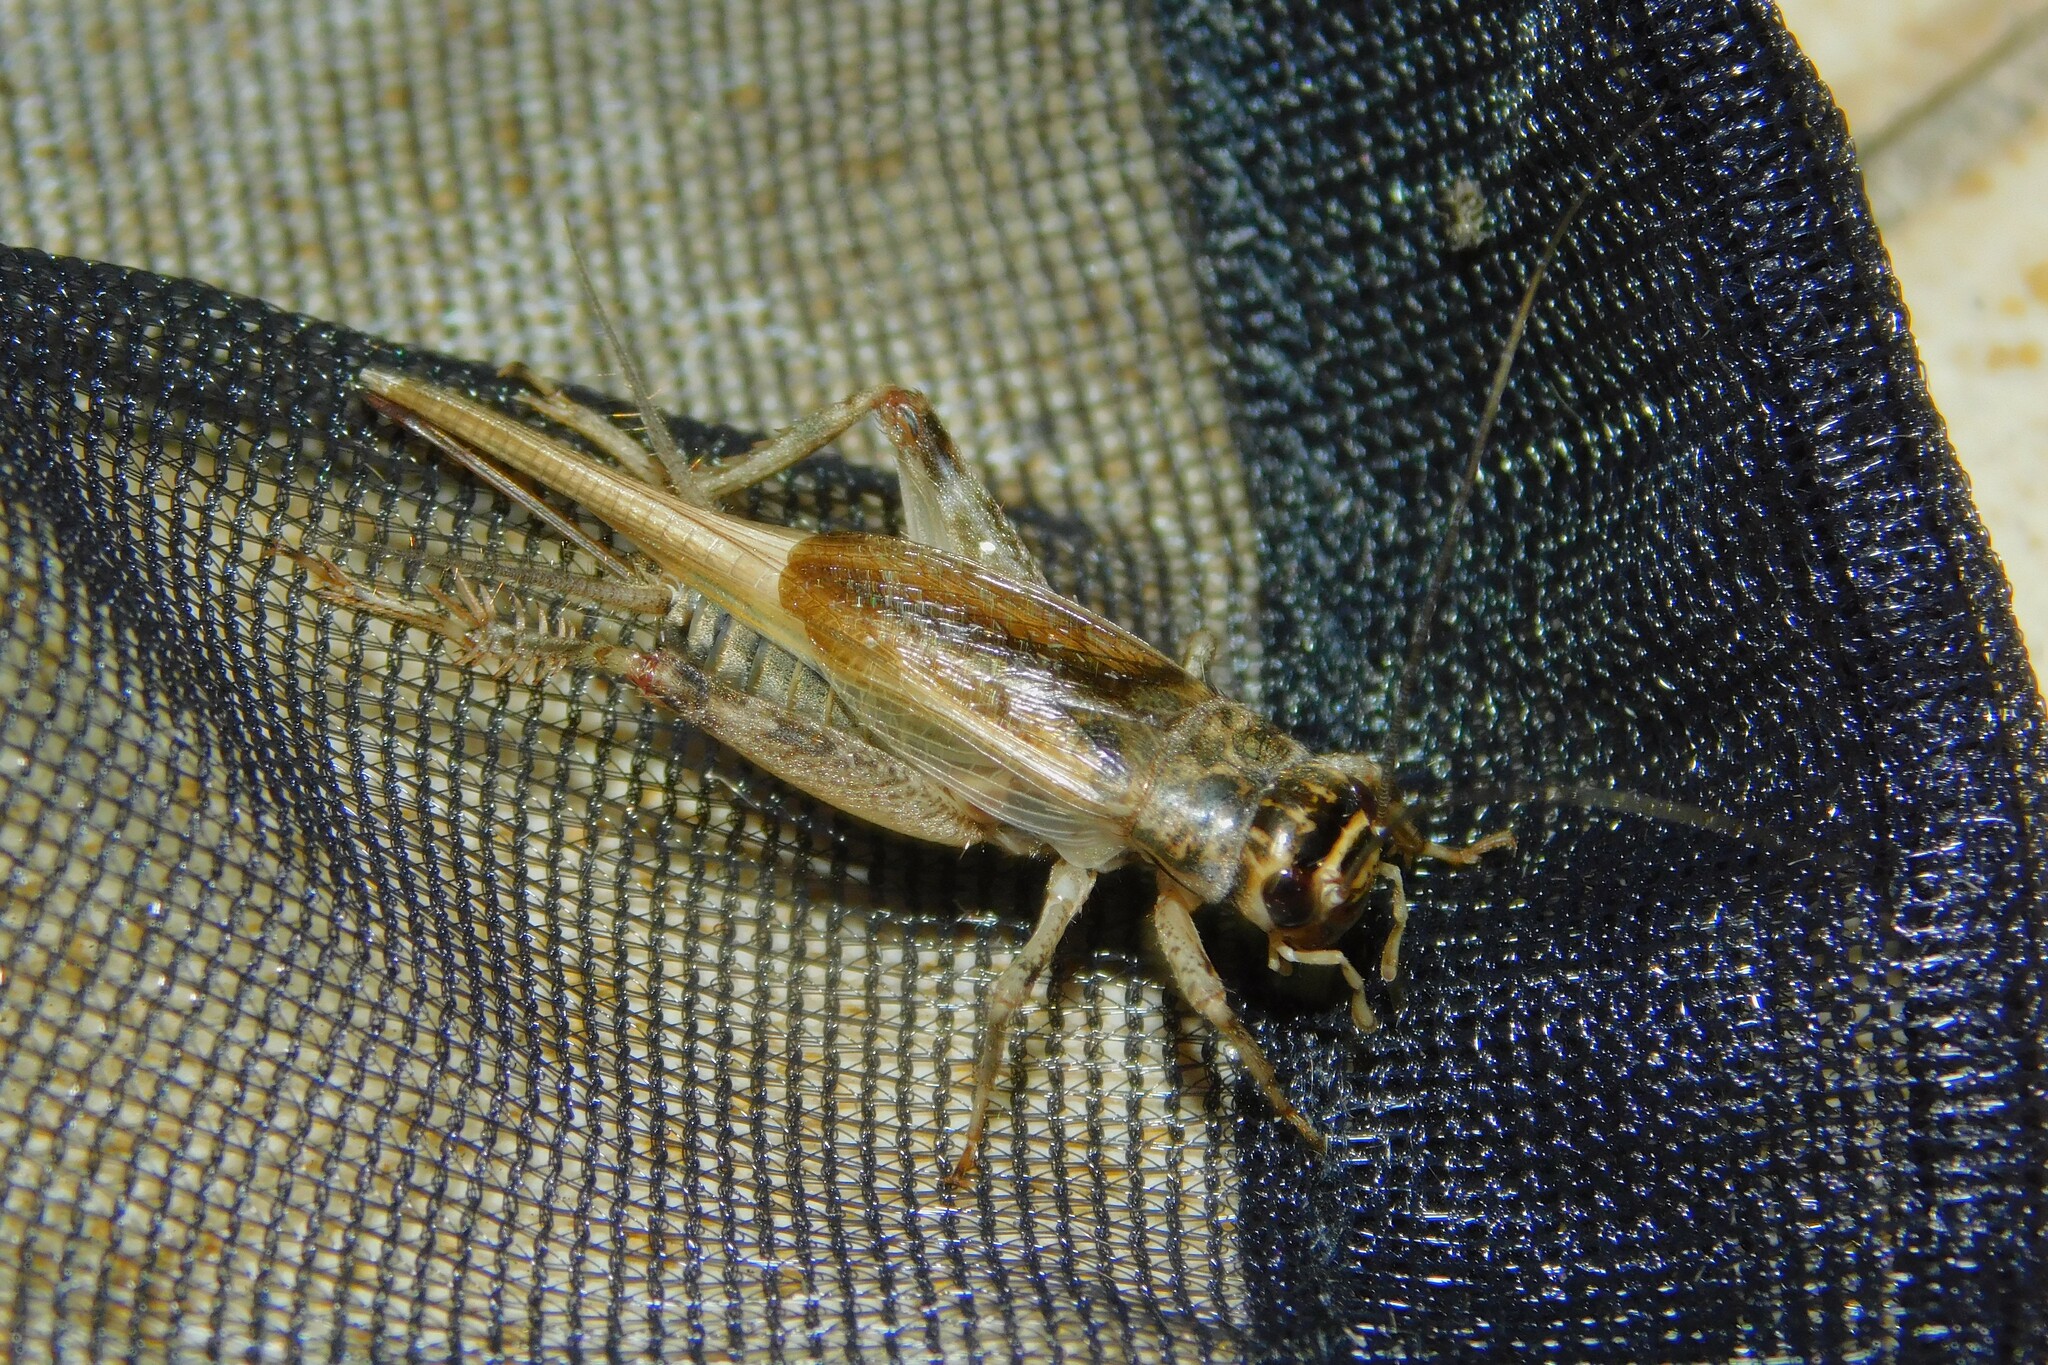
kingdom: Animalia
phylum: Arthropoda
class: Insecta
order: Orthoptera
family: Gryllidae
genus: Eumodicogryllus
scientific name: Eumodicogryllus bordigalensis
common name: Bordeaux cricket
